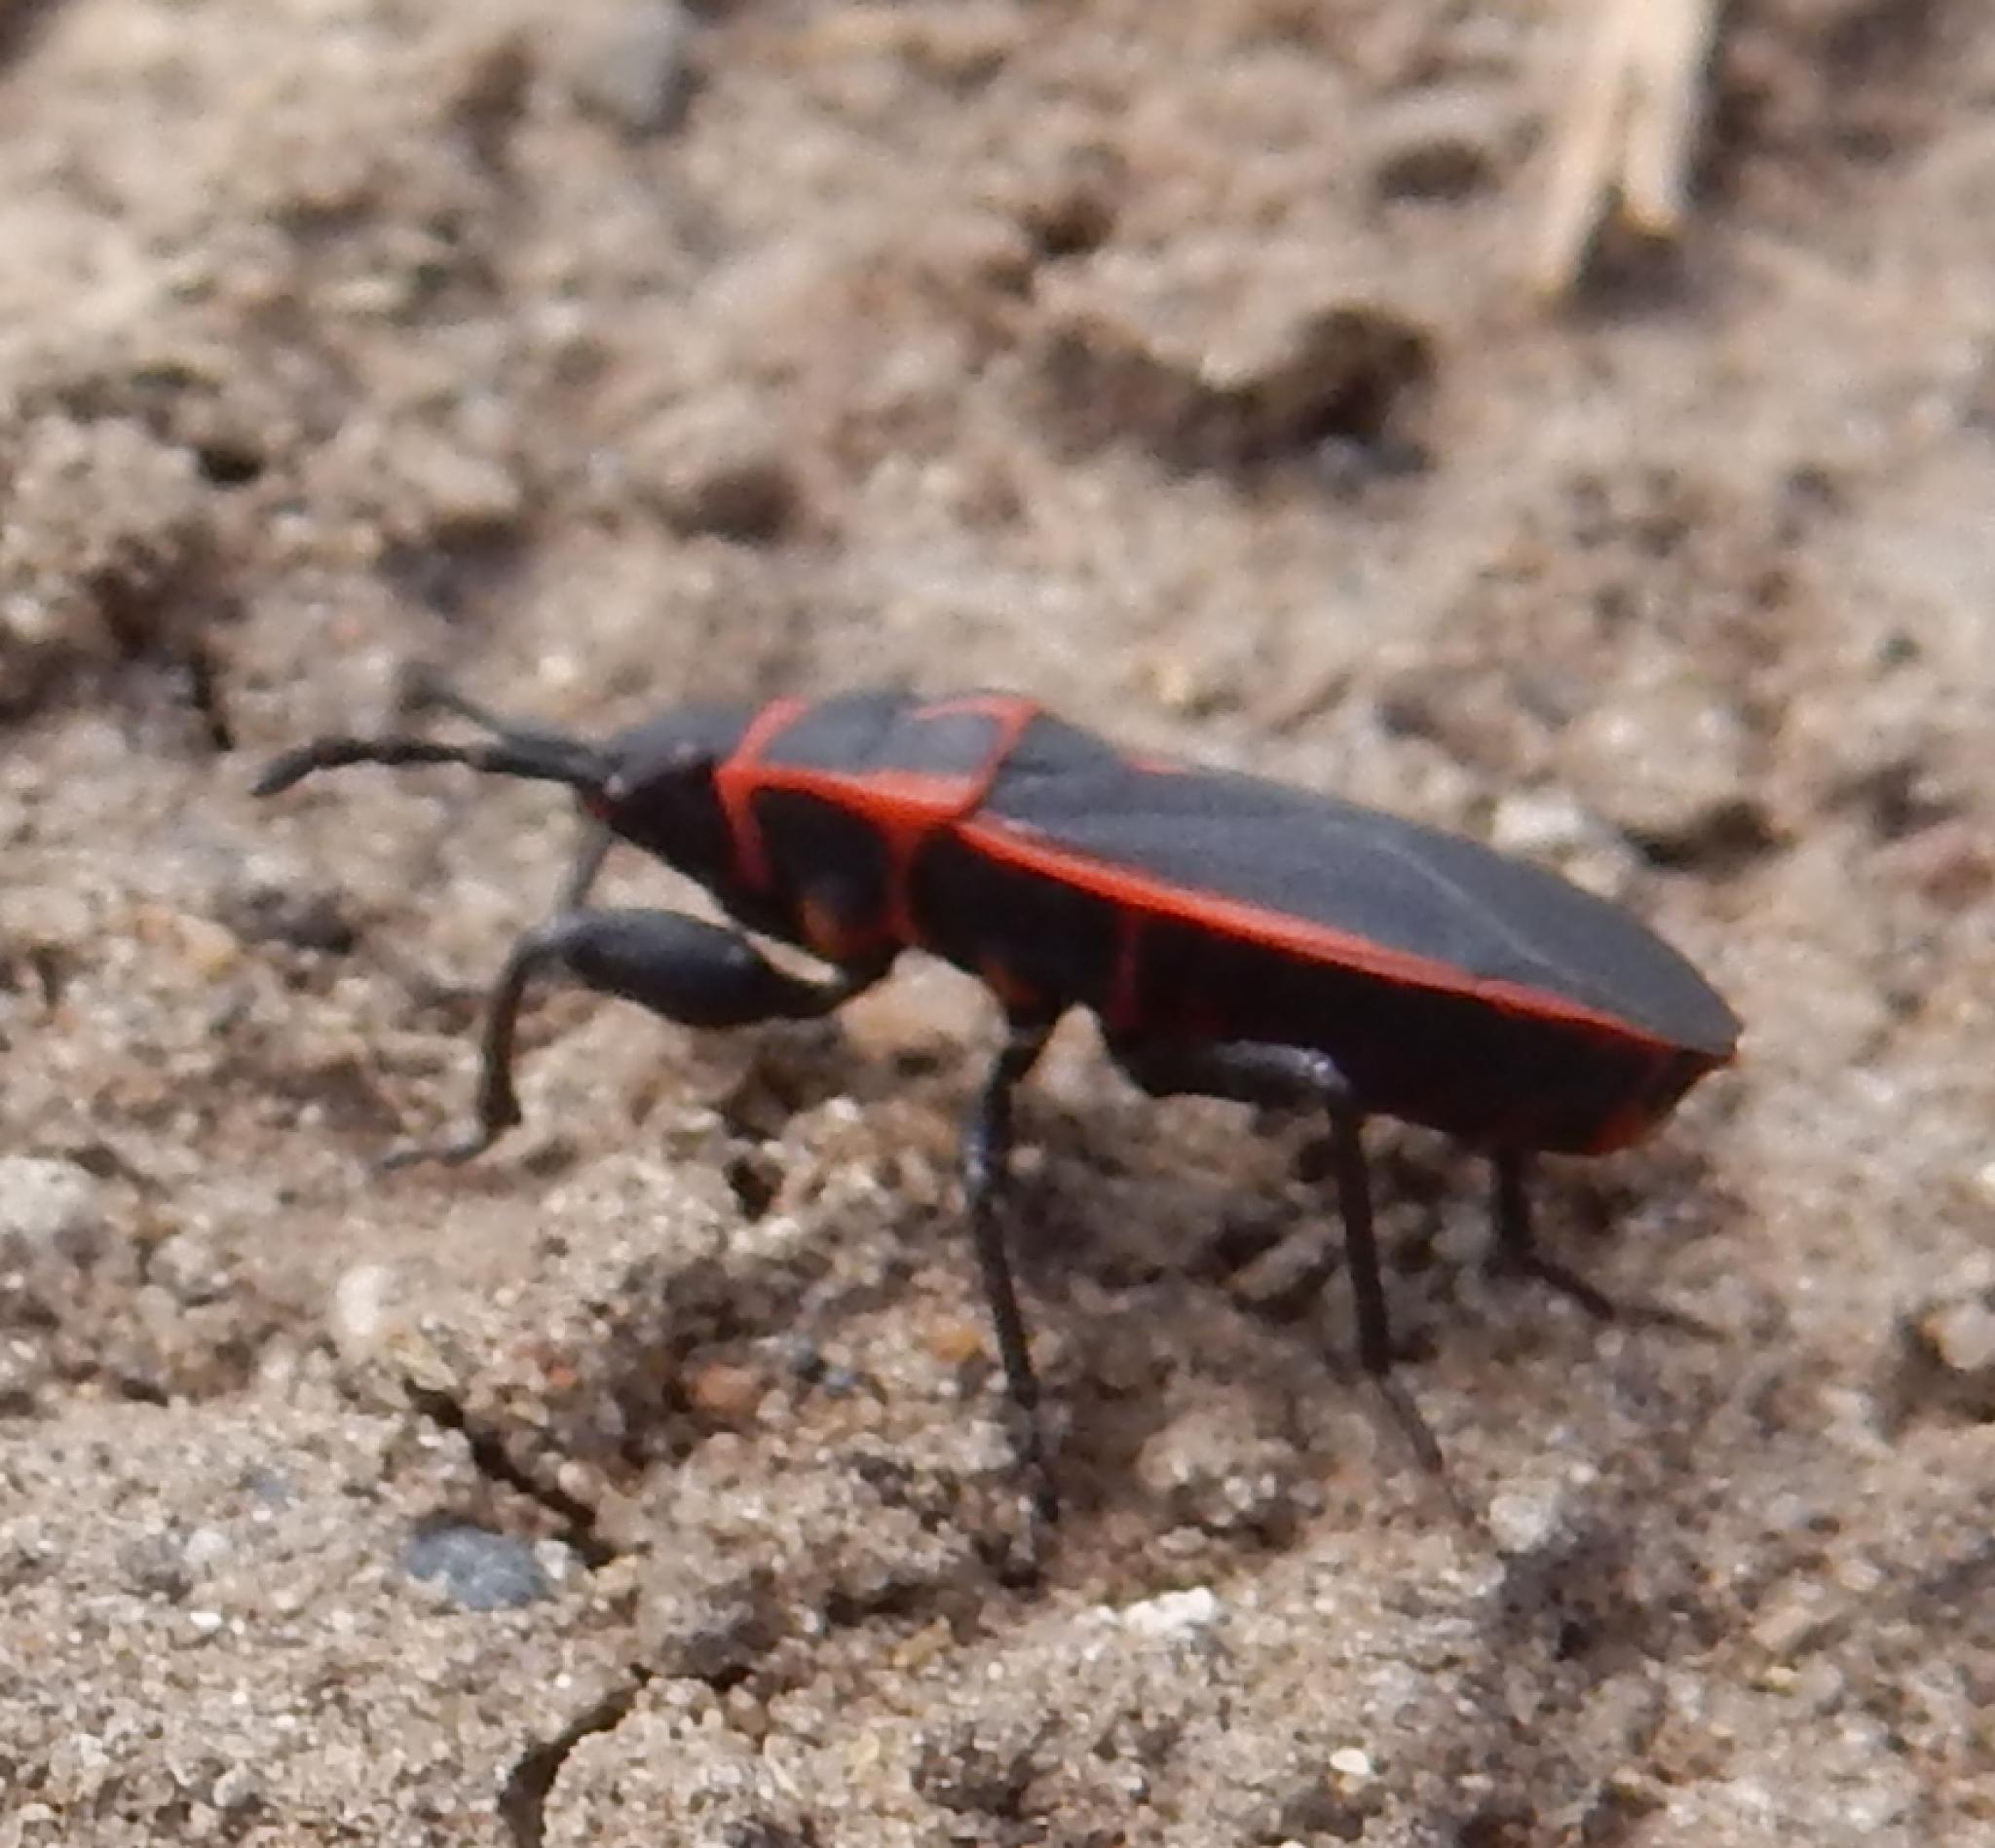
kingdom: Animalia
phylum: Arthropoda
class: Insecta
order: Hemiptera
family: Pyrrhocoridae
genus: Scantius
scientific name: Scantius forsteri
